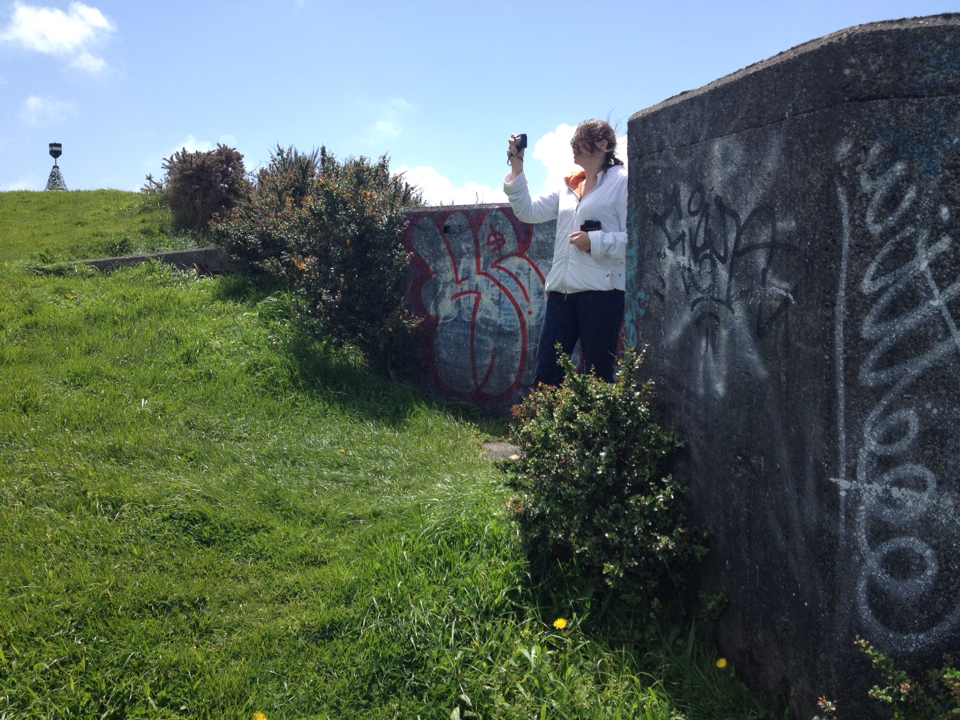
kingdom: Plantae
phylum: Tracheophyta
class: Magnoliopsida
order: Ranunculales
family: Berberidaceae
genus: Berberis
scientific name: Berberis darwinii
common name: Darwin's barberry
